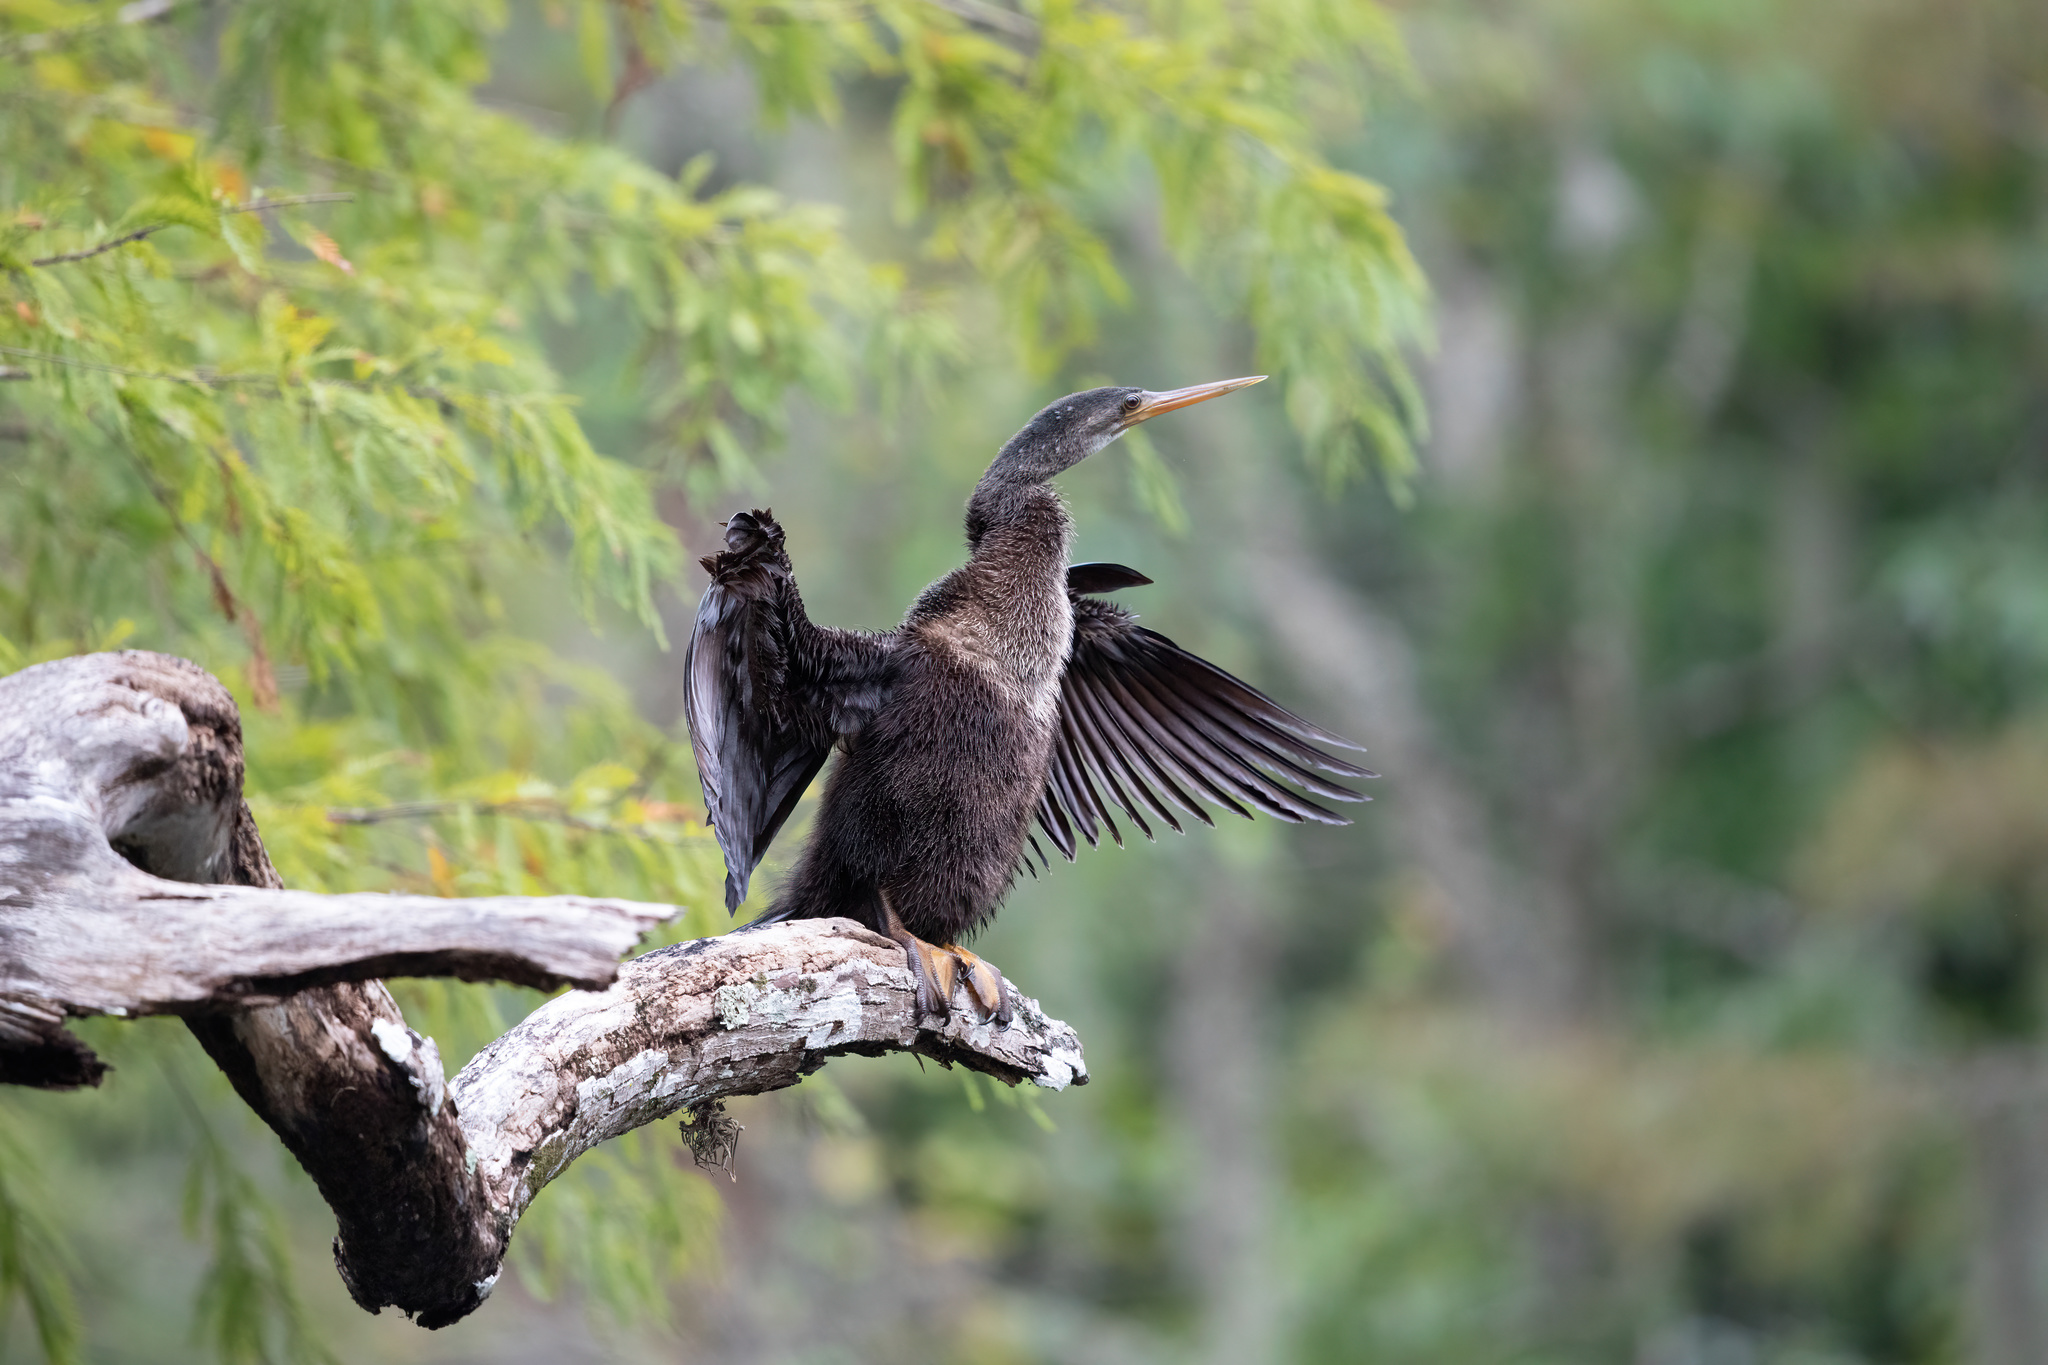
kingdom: Animalia
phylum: Chordata
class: Aves
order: Suliformes
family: Anhingidae
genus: Anhinga
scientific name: Anhinga anhinga
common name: Anhinga
